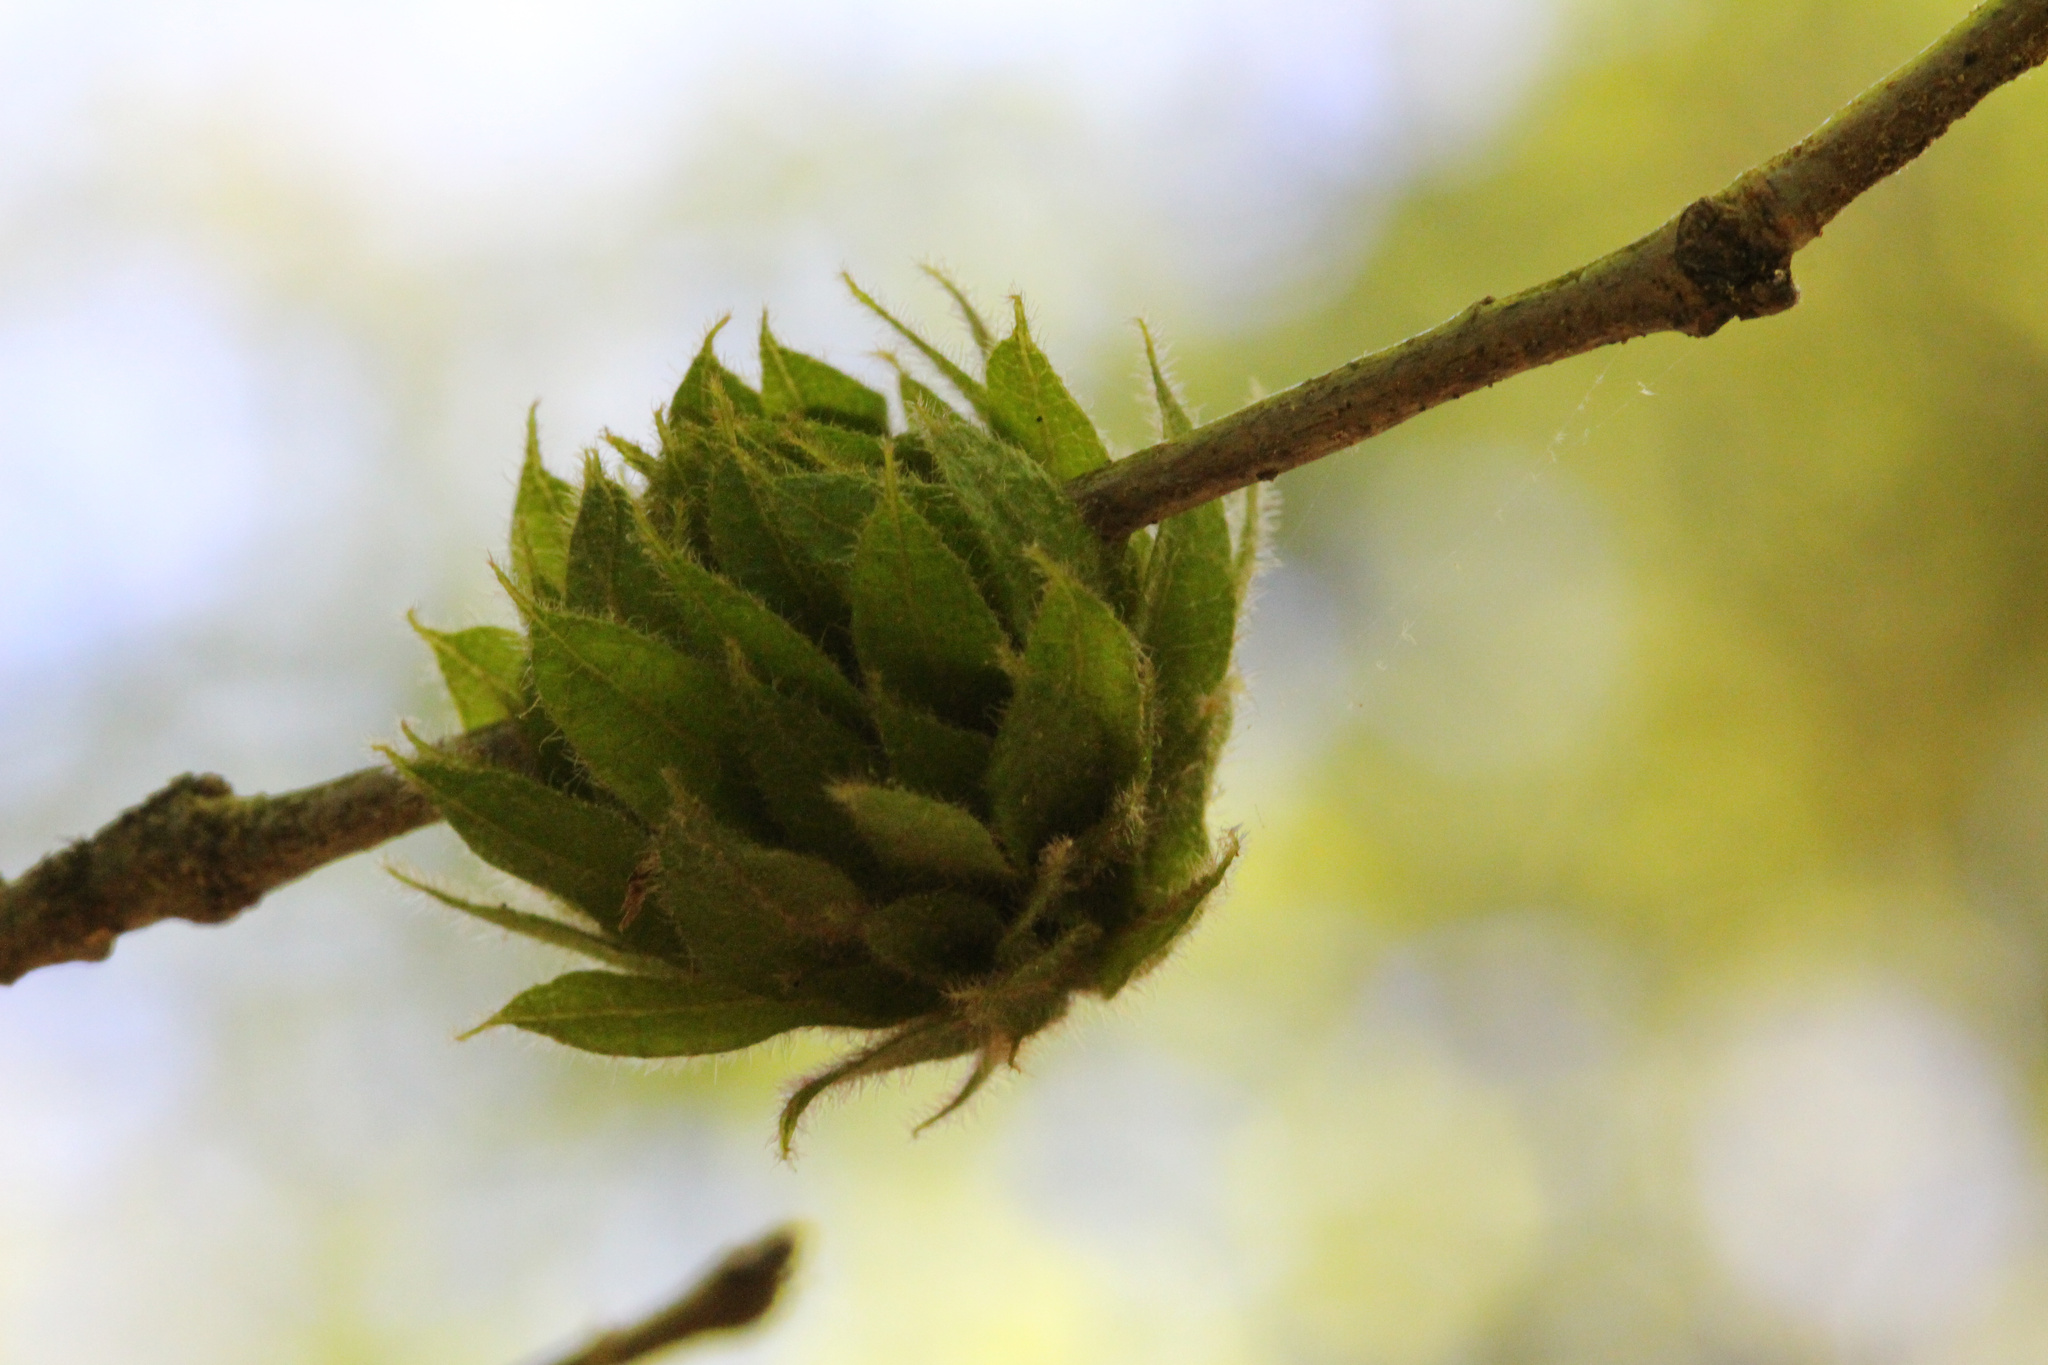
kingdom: Animalia
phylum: Arthropoda
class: Insecta
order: Hymenoptera
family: Cynipidae
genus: Dryocosmus
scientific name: Dryocosmus
